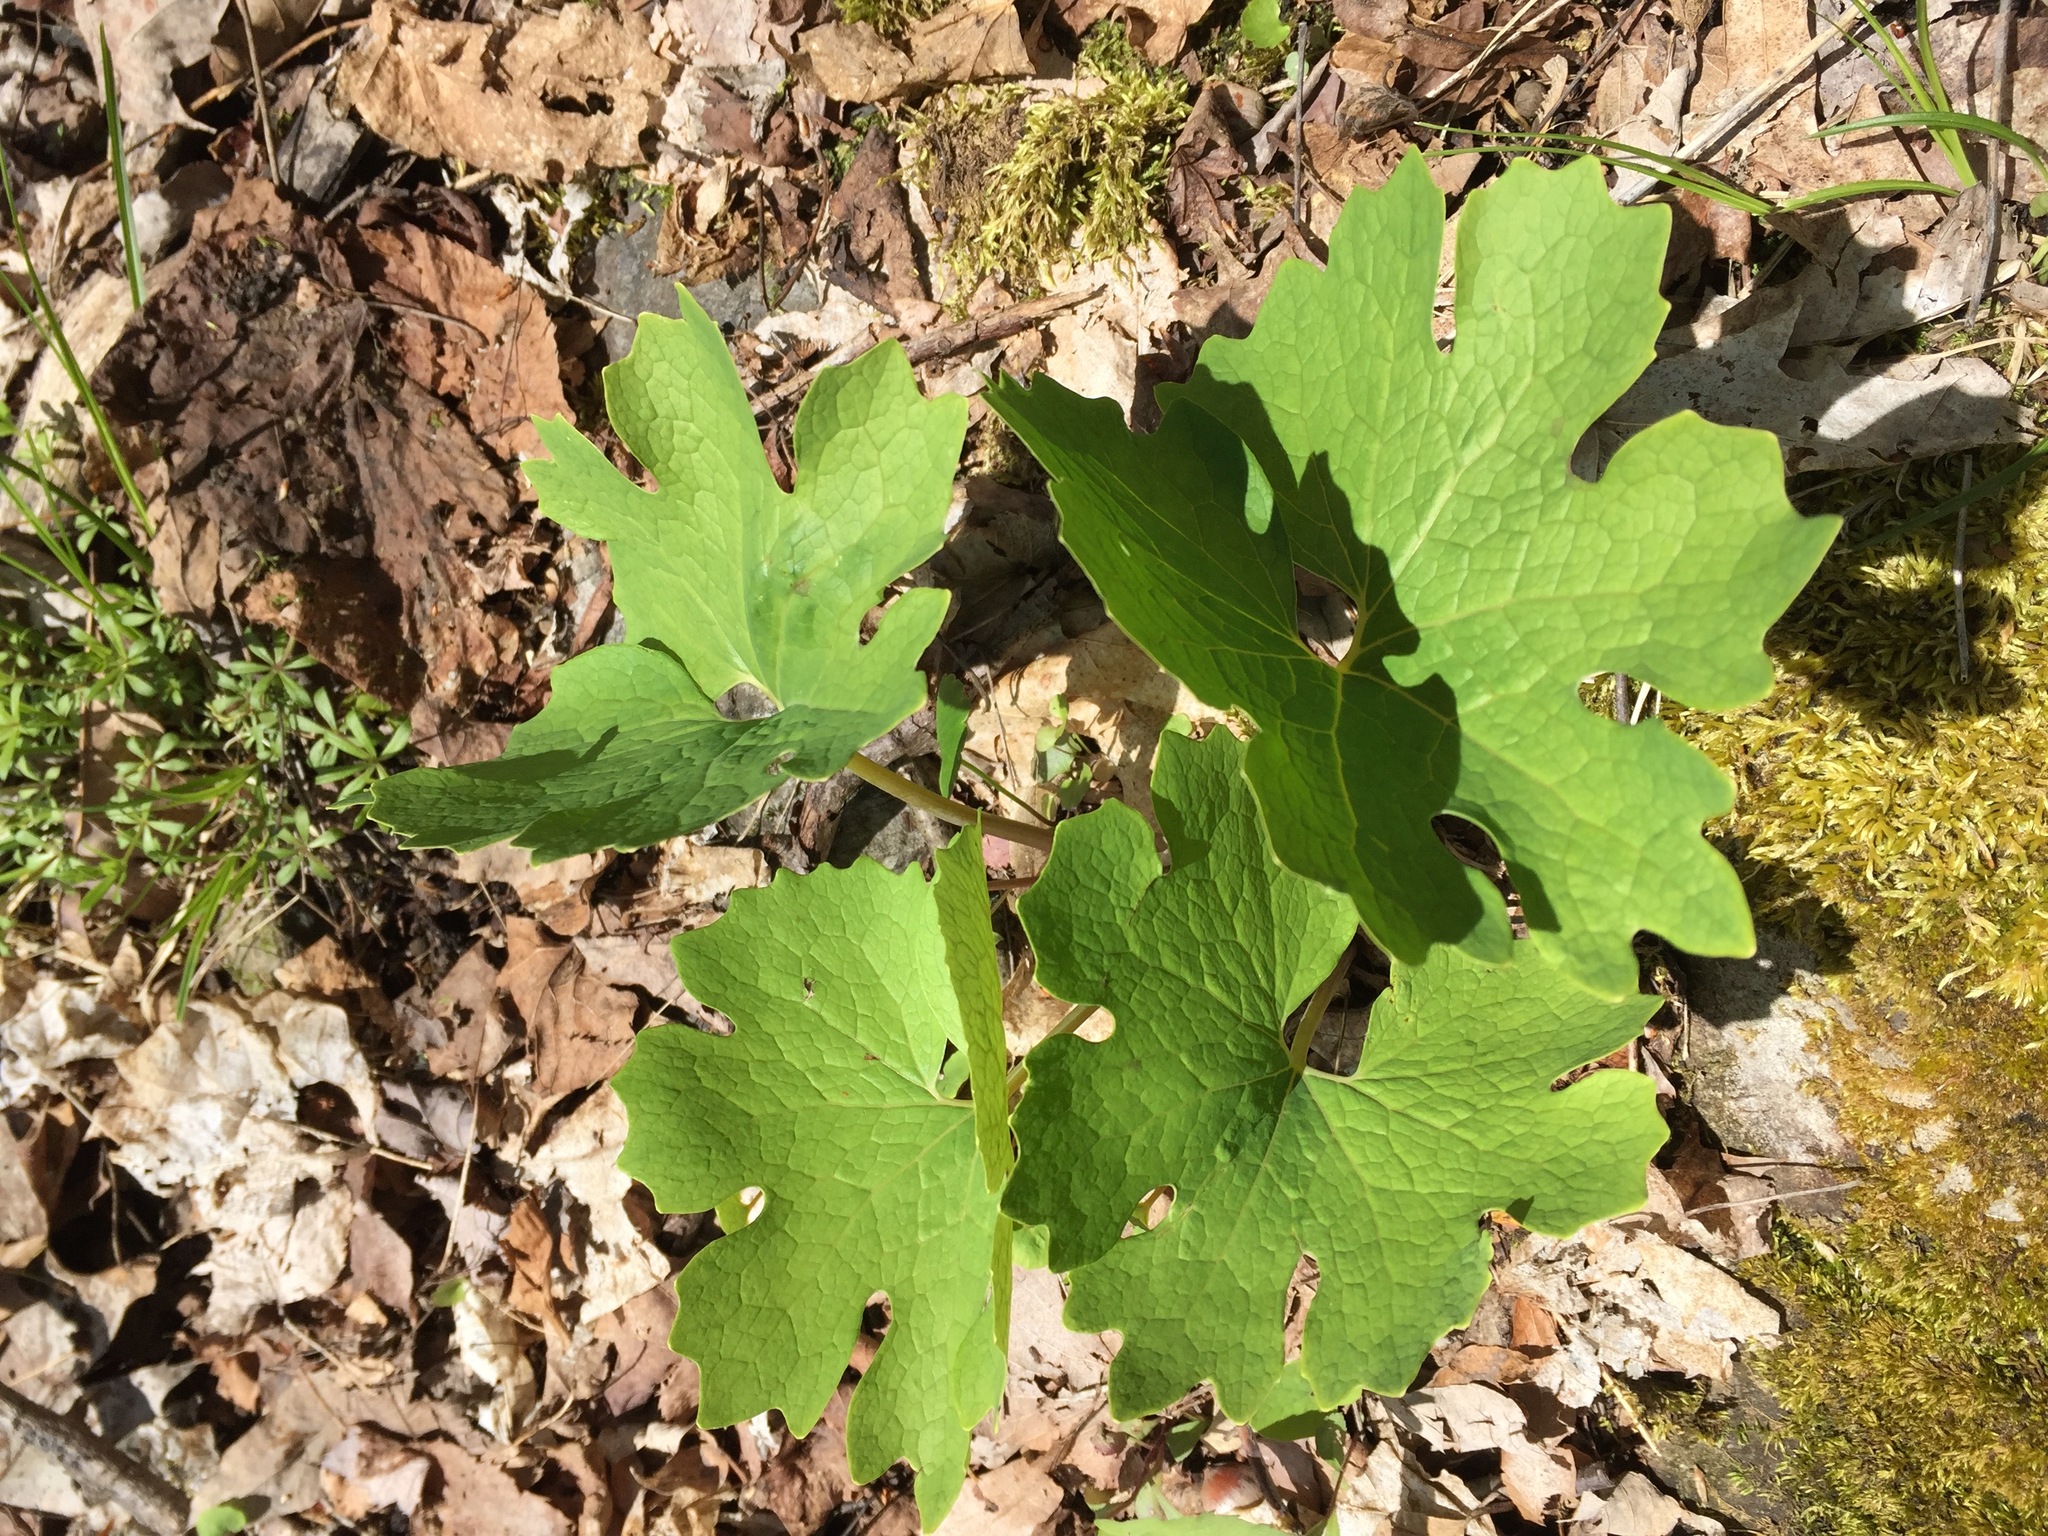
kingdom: Plantae
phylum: Tracheophyta
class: Magnoliopsida
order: Ranunculales
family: Papaveraceae
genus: Sanguinaria
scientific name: Sanguinaria canadensis
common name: Bloodroot
